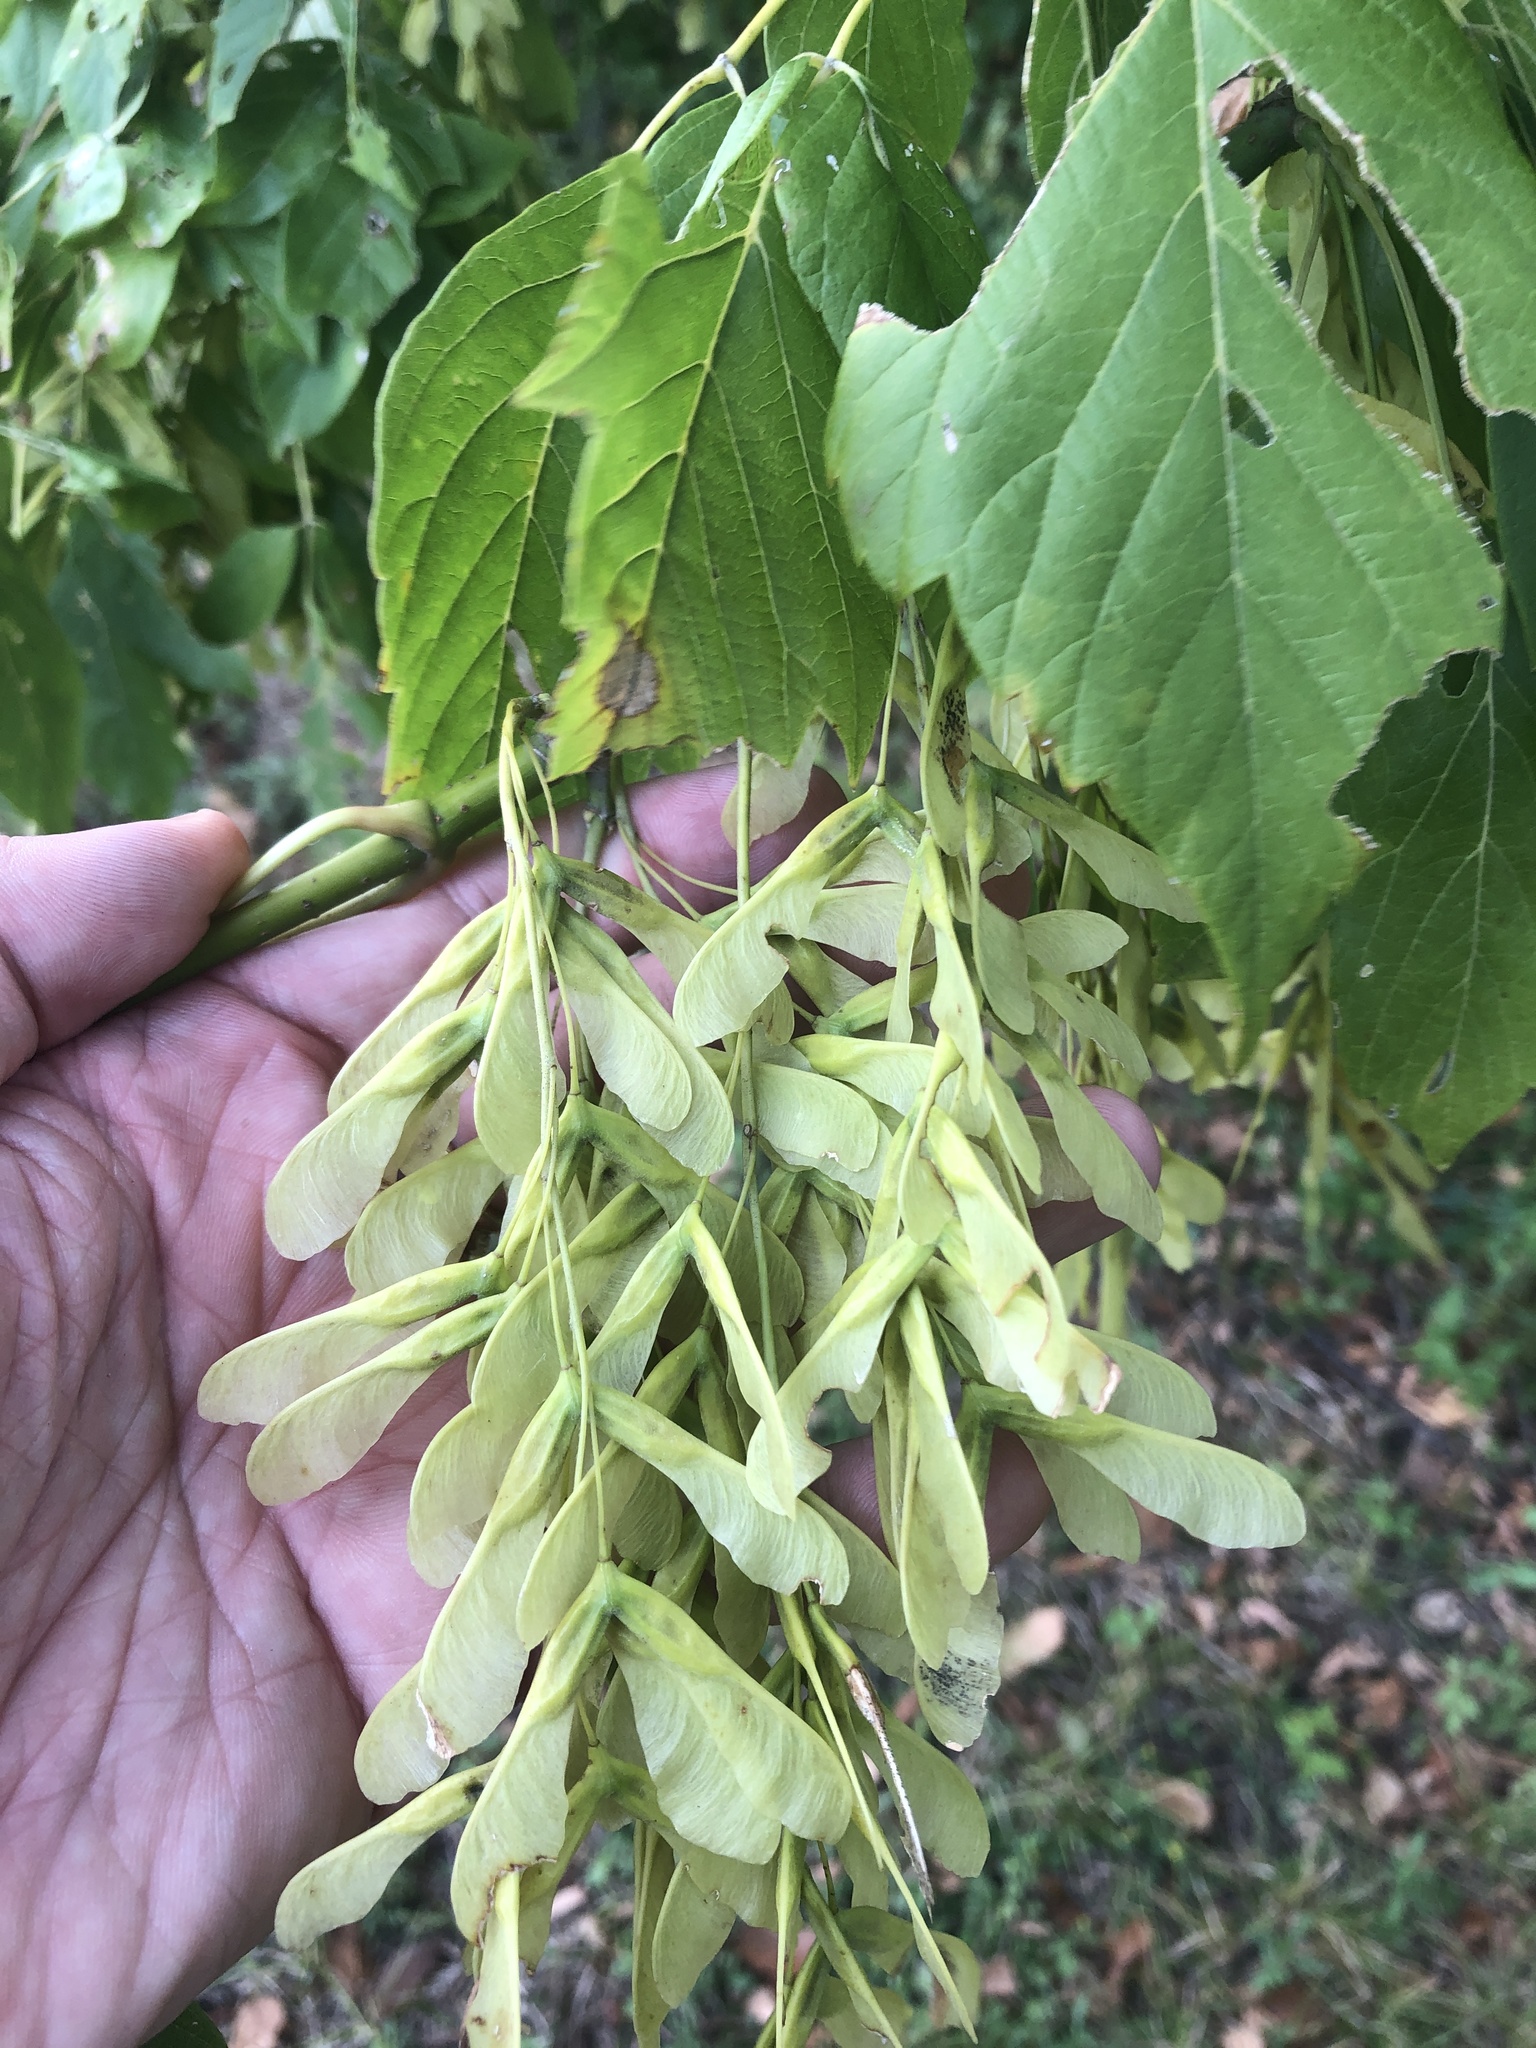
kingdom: Plantae
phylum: Tracheophyta
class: Magnoliopsida
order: Sapindales
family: Sapindaceae
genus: Acer
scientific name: Acer negundo
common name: Ashleaf maple
